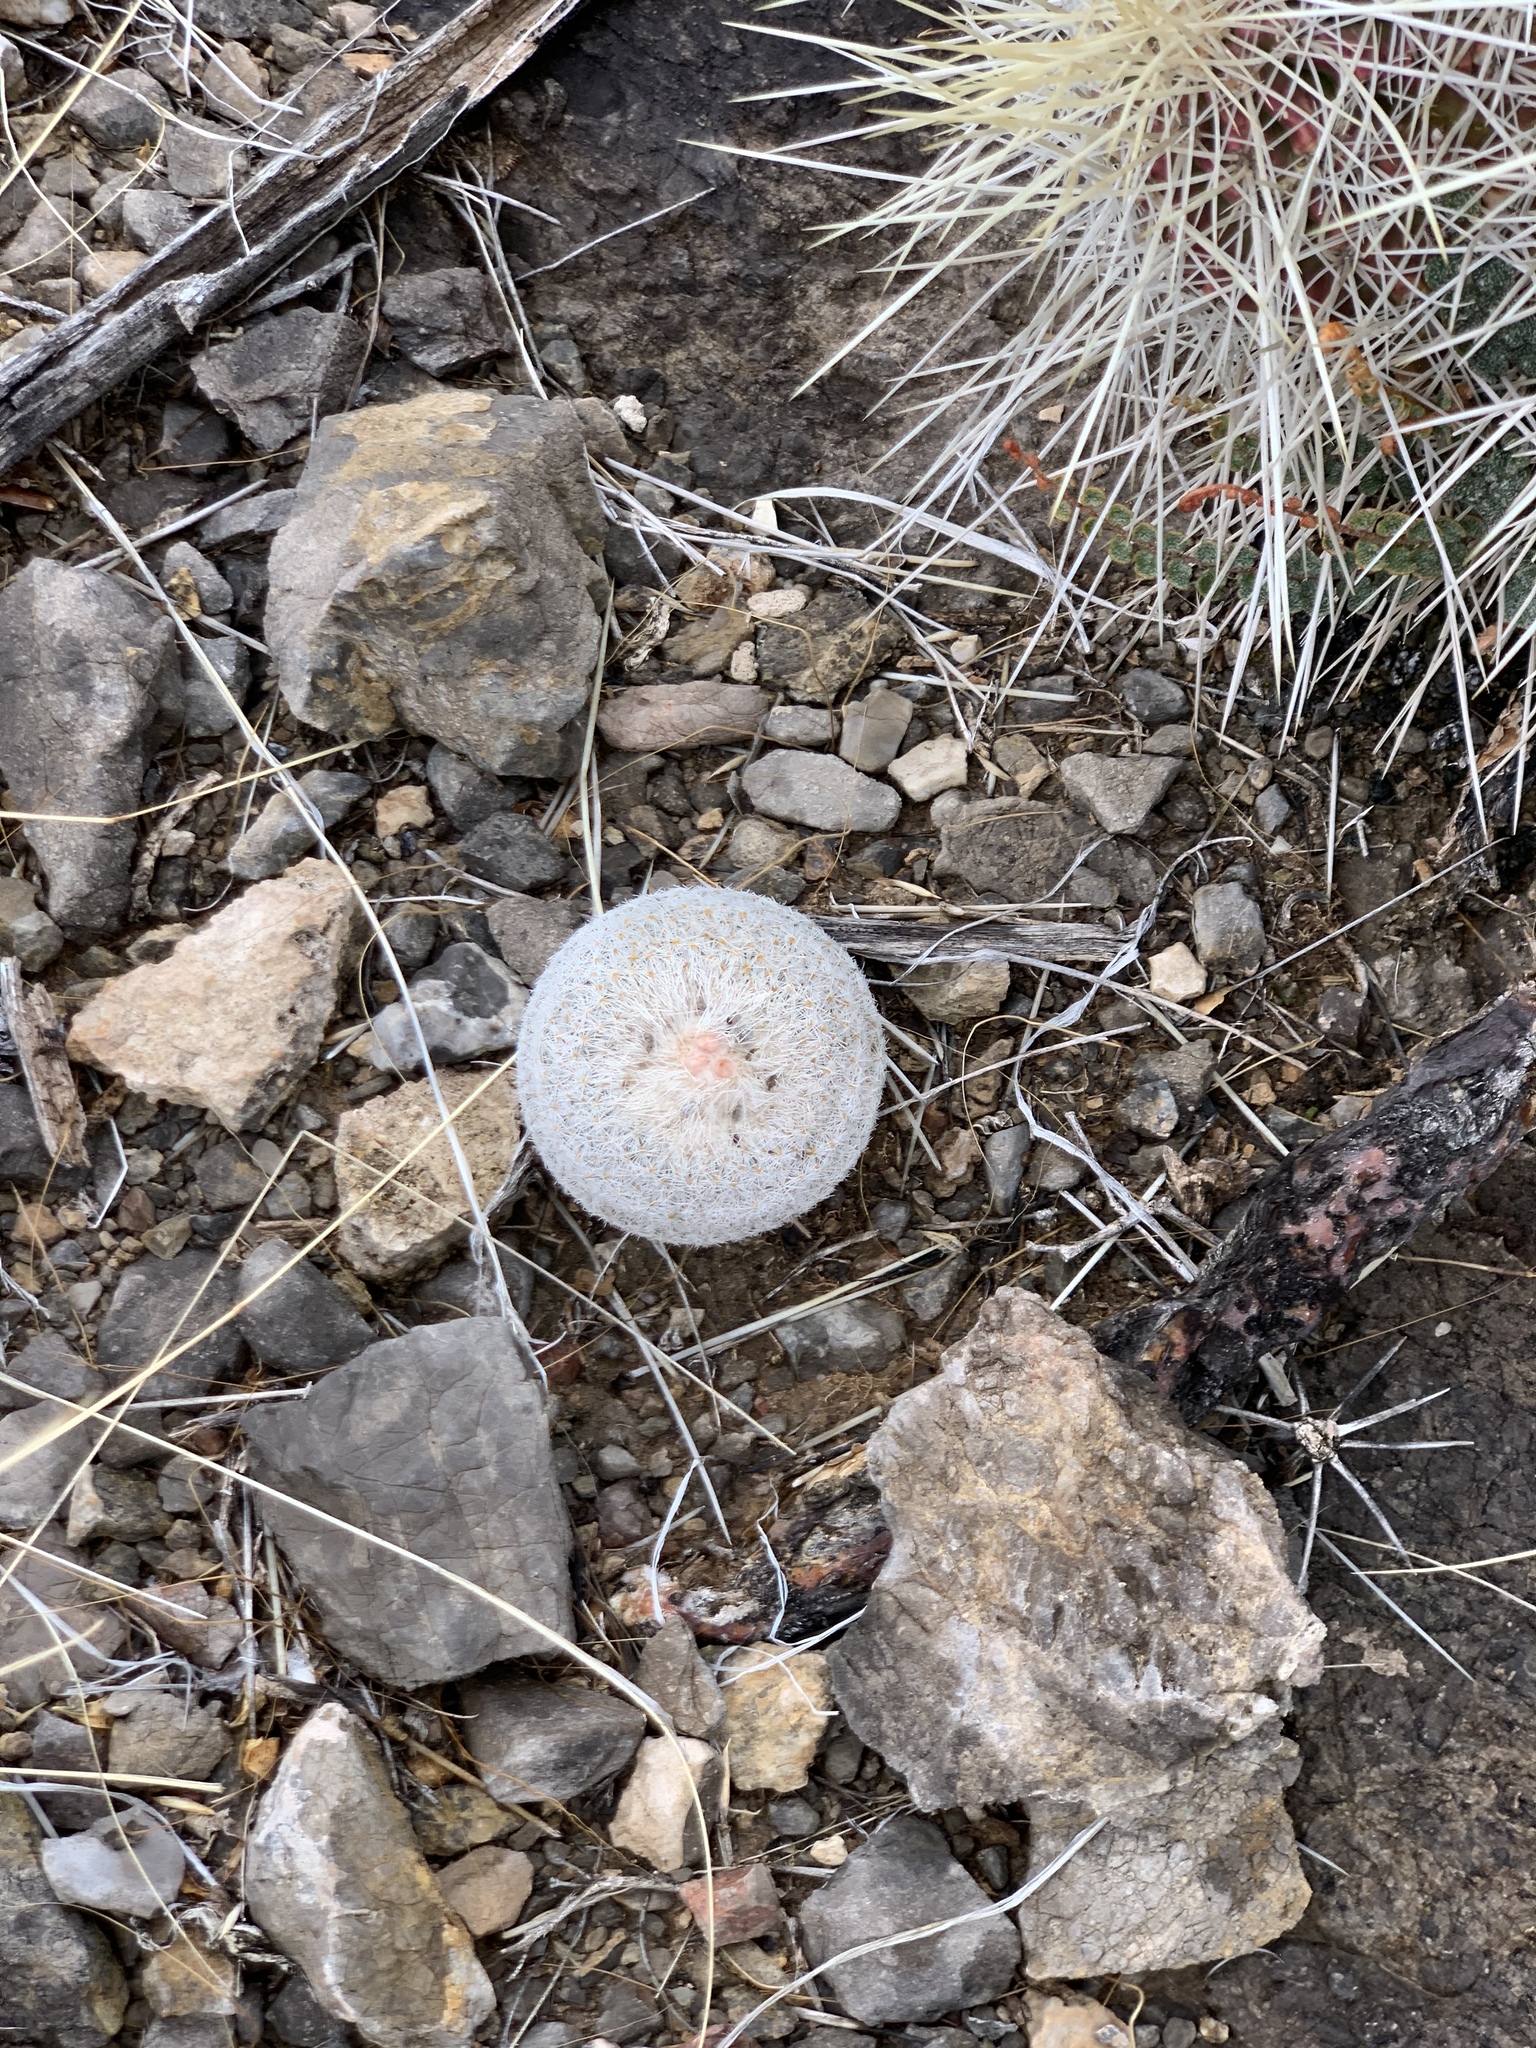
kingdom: Plantae
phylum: Tracheophyta
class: Magnoliopsida
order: Caryophyllales
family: Cactaceae
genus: Epithelantha
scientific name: Epithelantha micromeris
